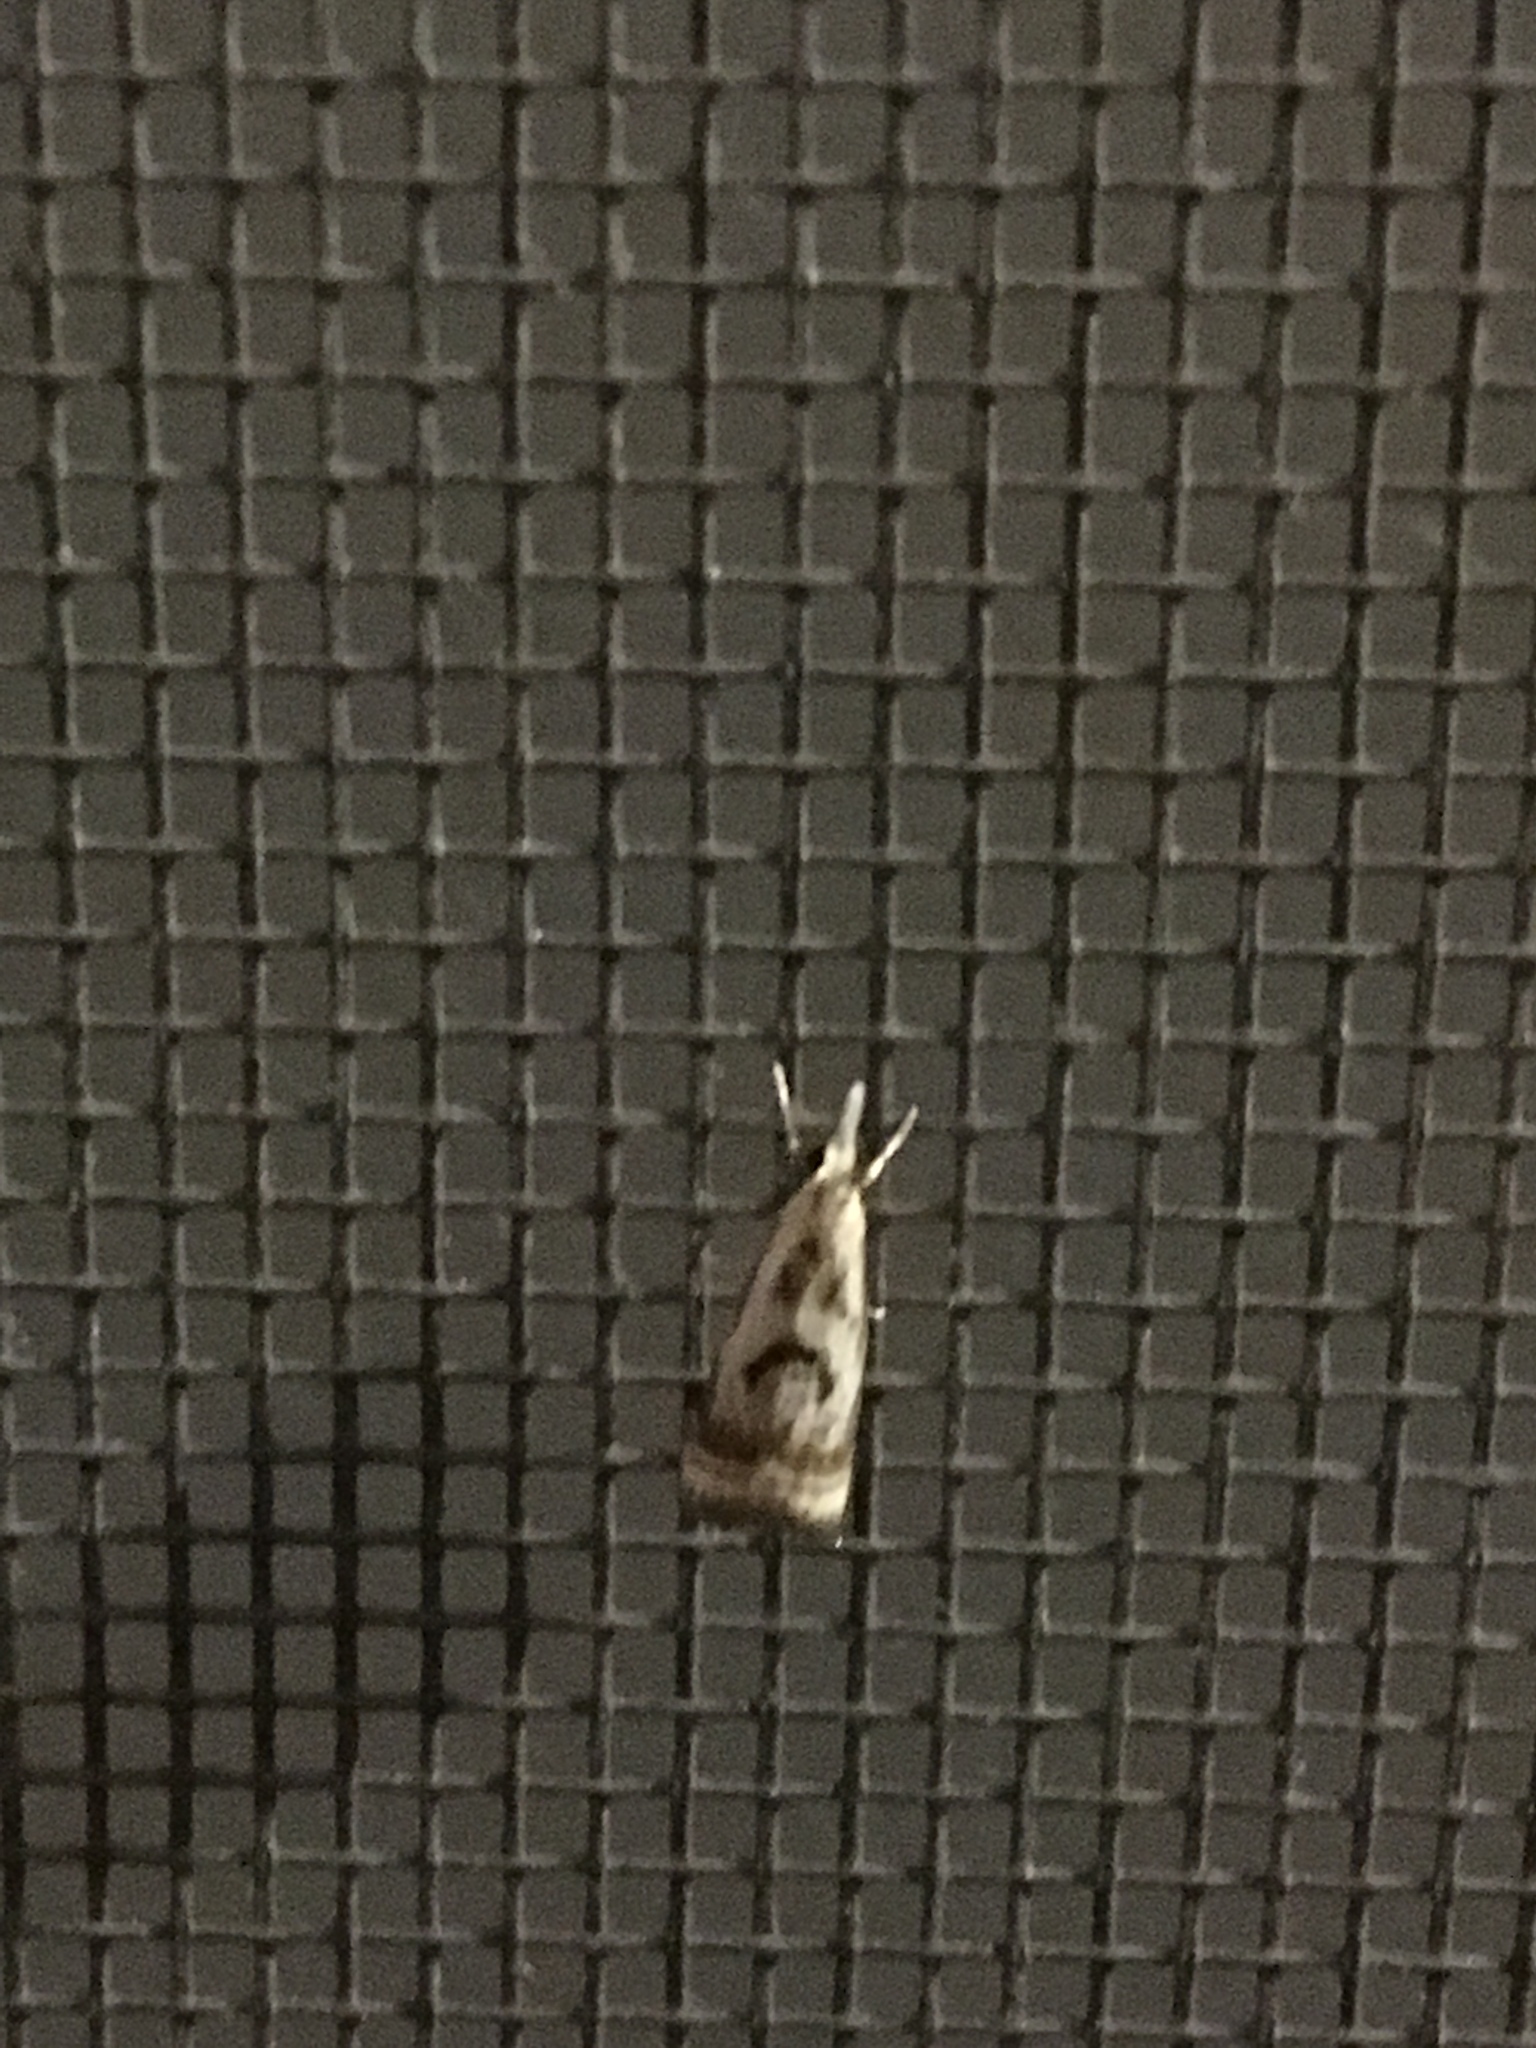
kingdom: Animalia
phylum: Arthropoda
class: Insecta
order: Lepidoptera
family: Crambidae
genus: Microcrambus
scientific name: Microcrambus elegans
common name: Elegant grass-veneer
